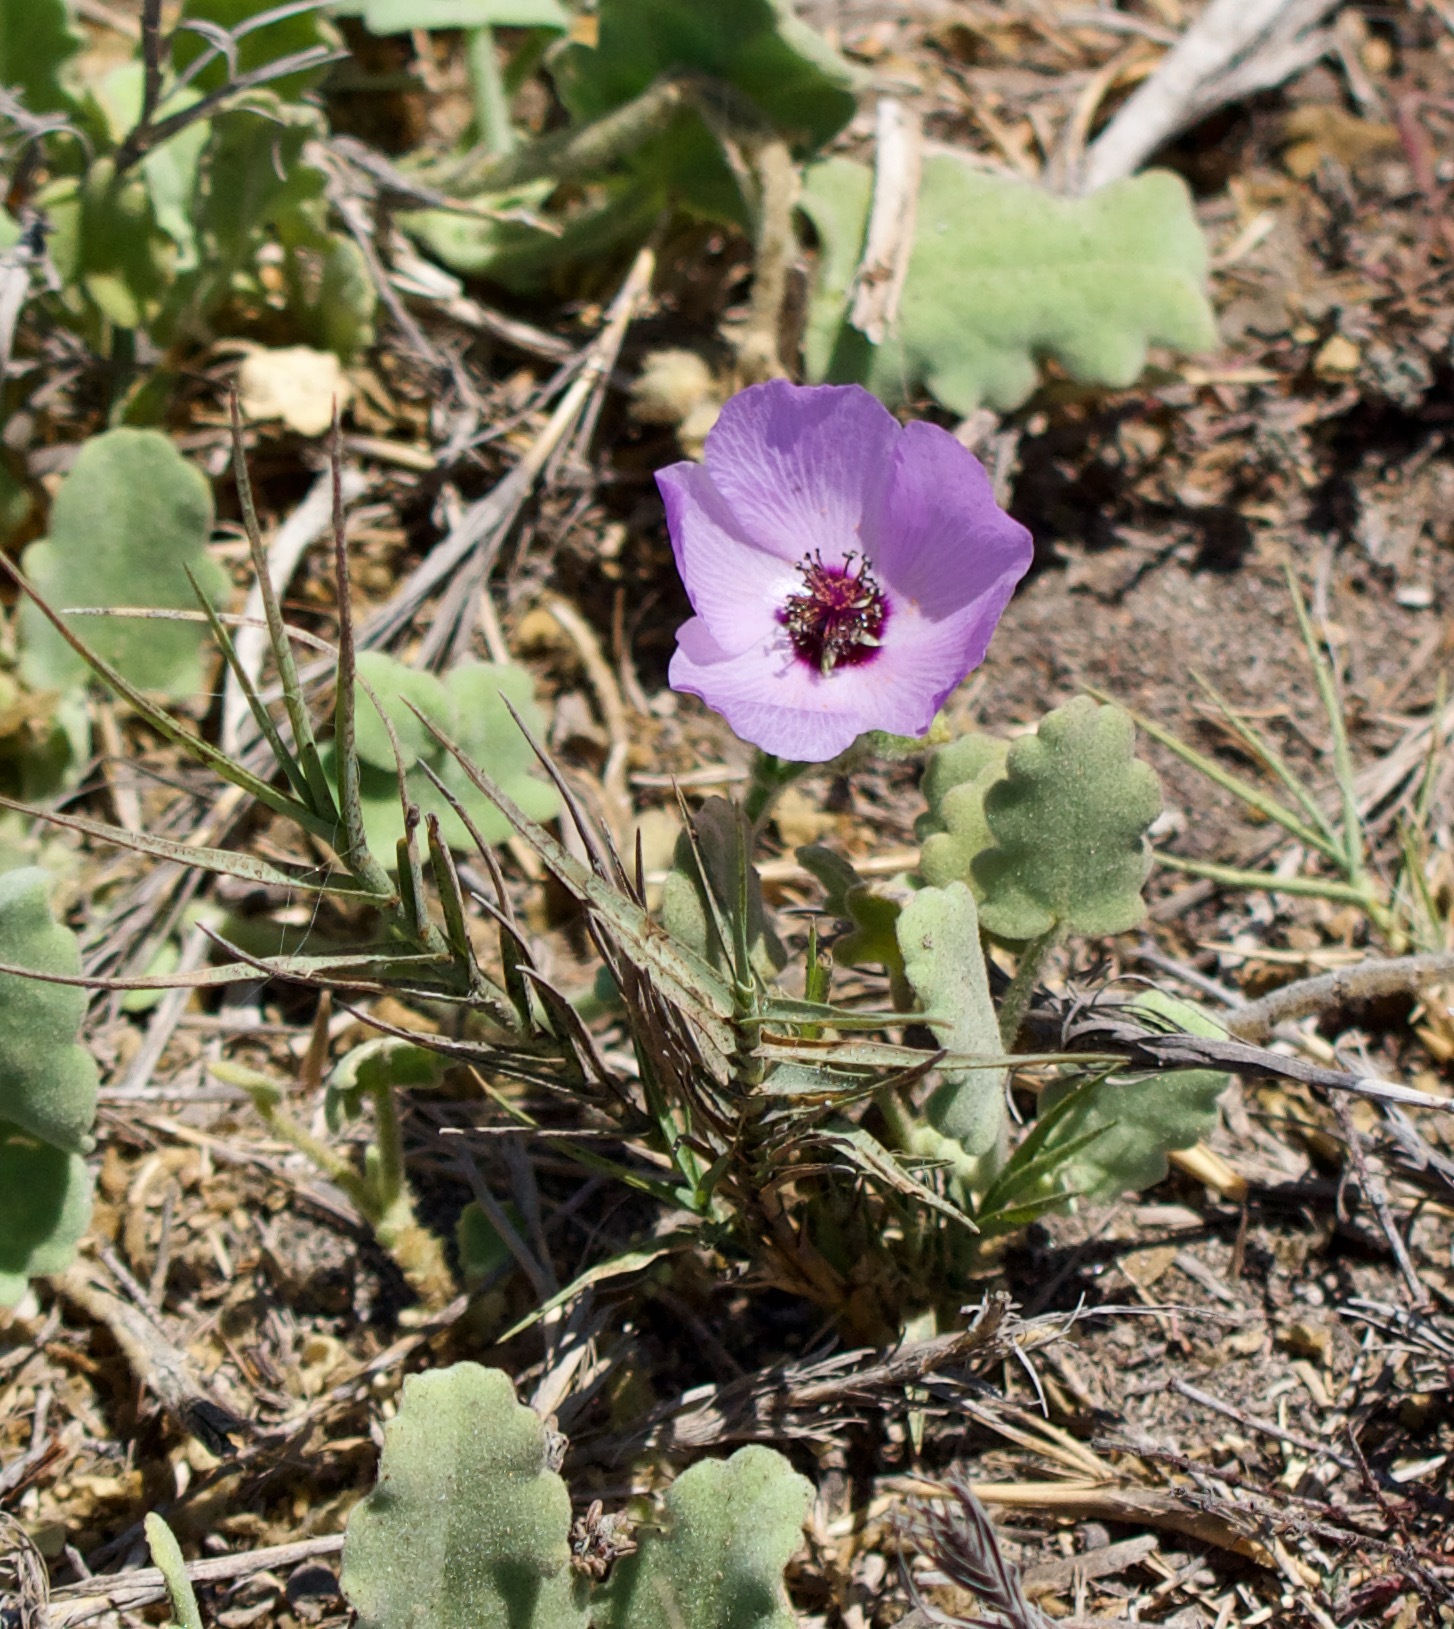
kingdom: Plantae
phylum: Tracheophyta
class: Magnoliopsida
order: Malvales
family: Malvaceae
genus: Cristaria
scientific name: Cristaria glaucophylla
